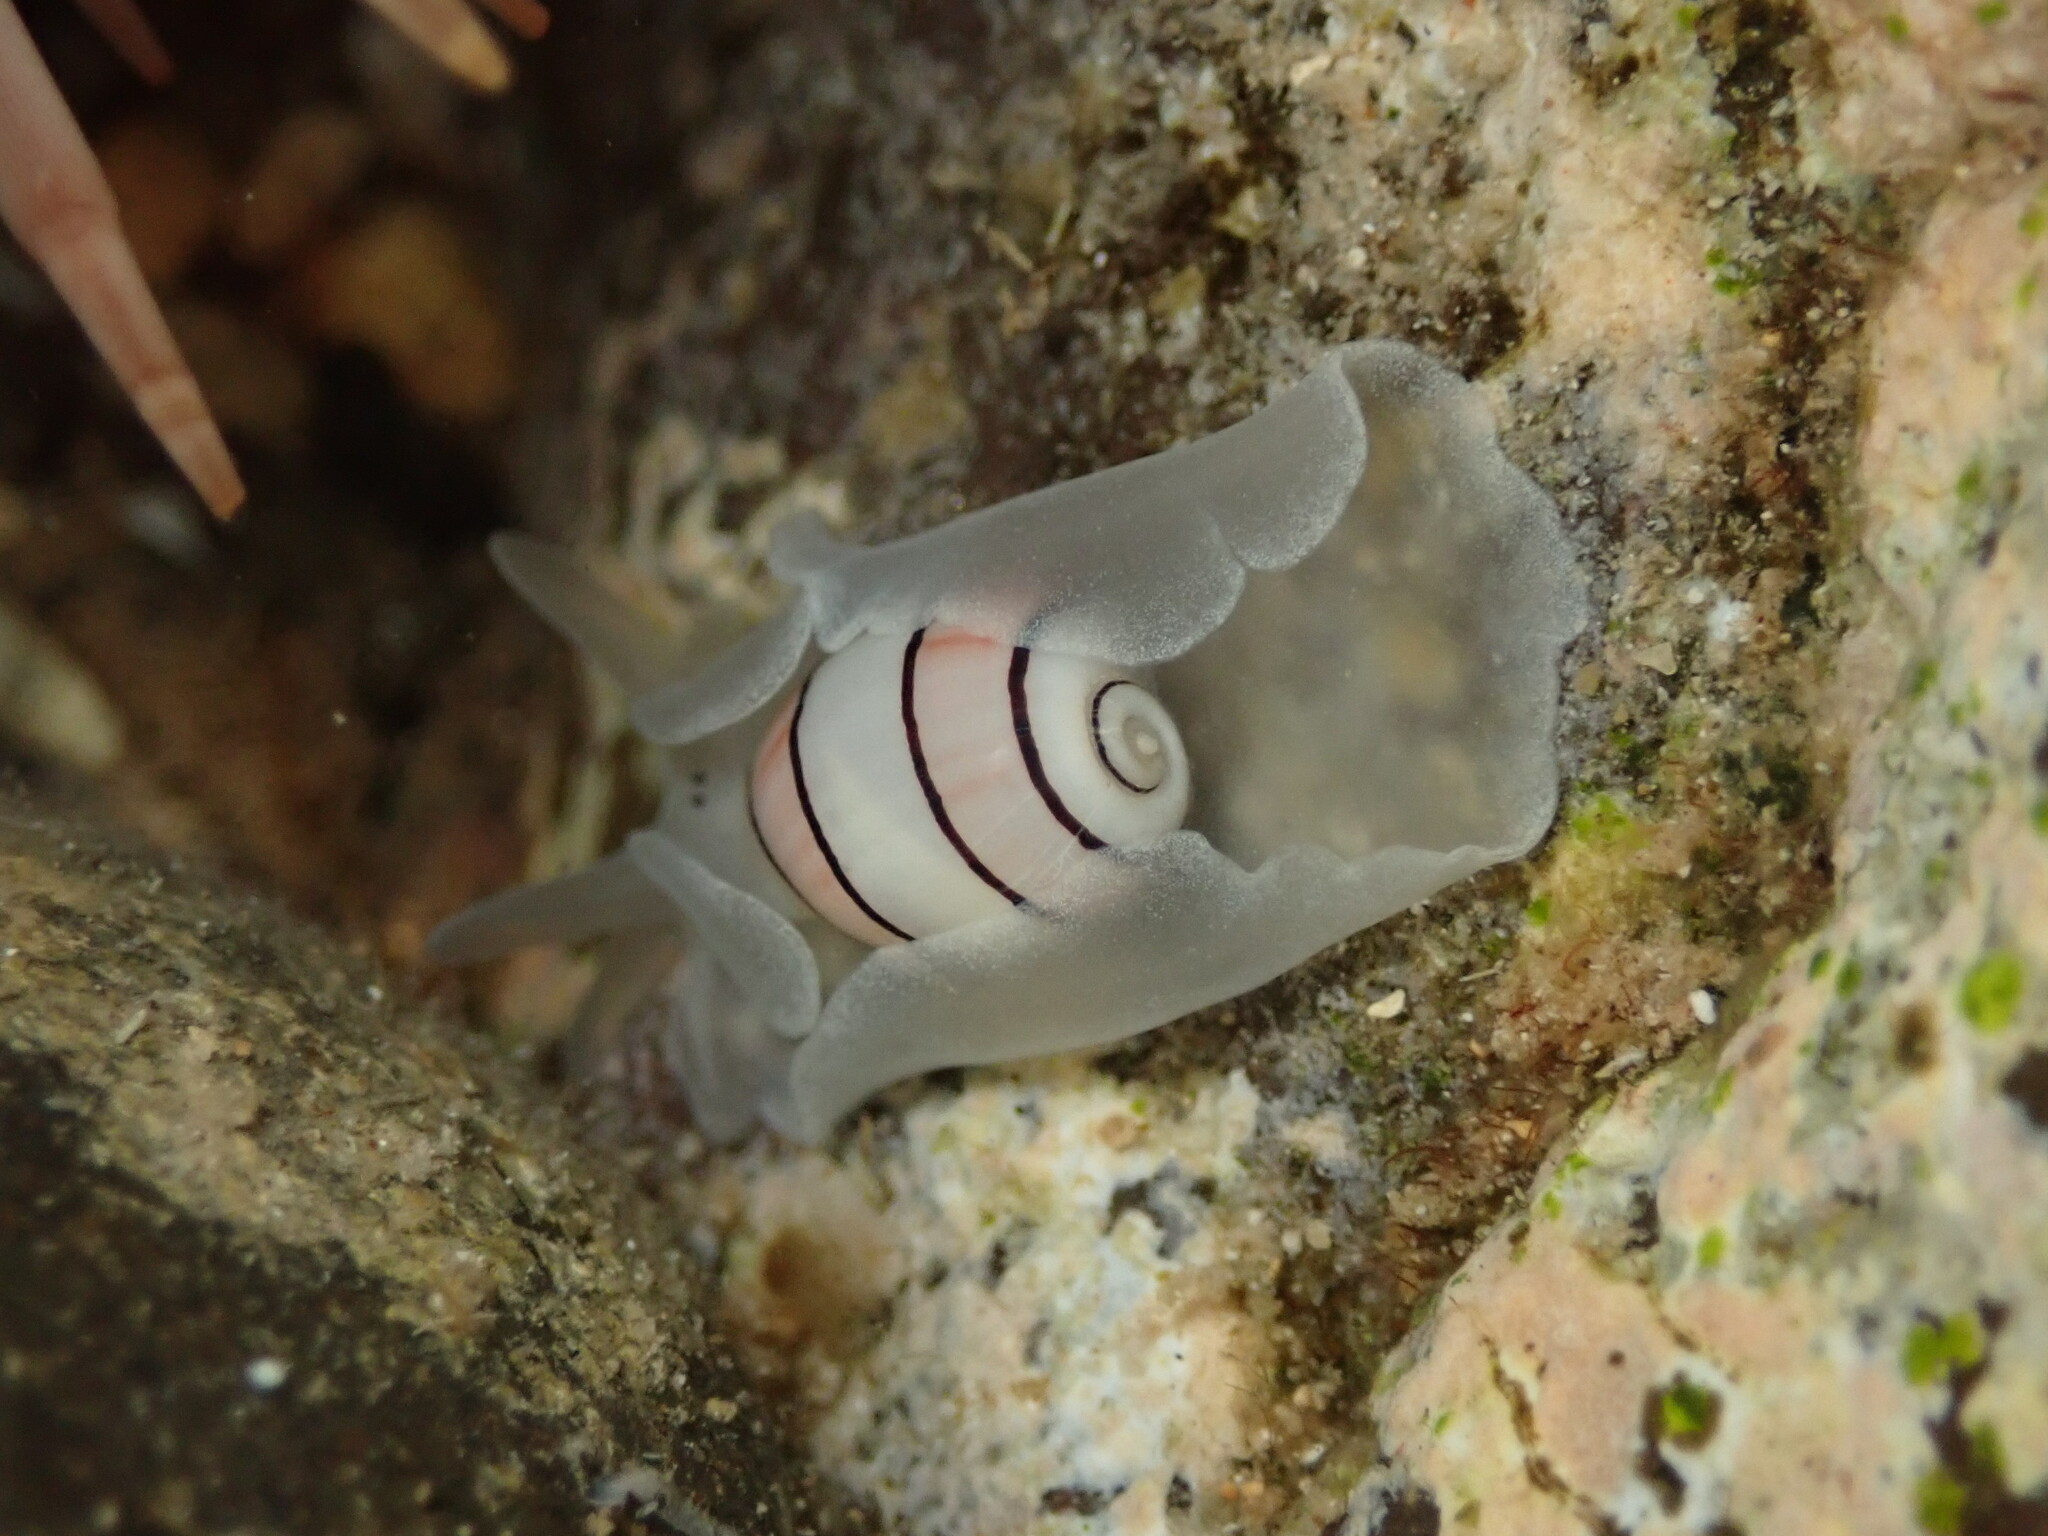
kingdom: Animalia
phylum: Mollusca
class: Gastropoda
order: Cephalaspidea
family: Aplustridae
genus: Aplustrum
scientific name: Aplustrum amplustre
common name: Royal paperbubble
